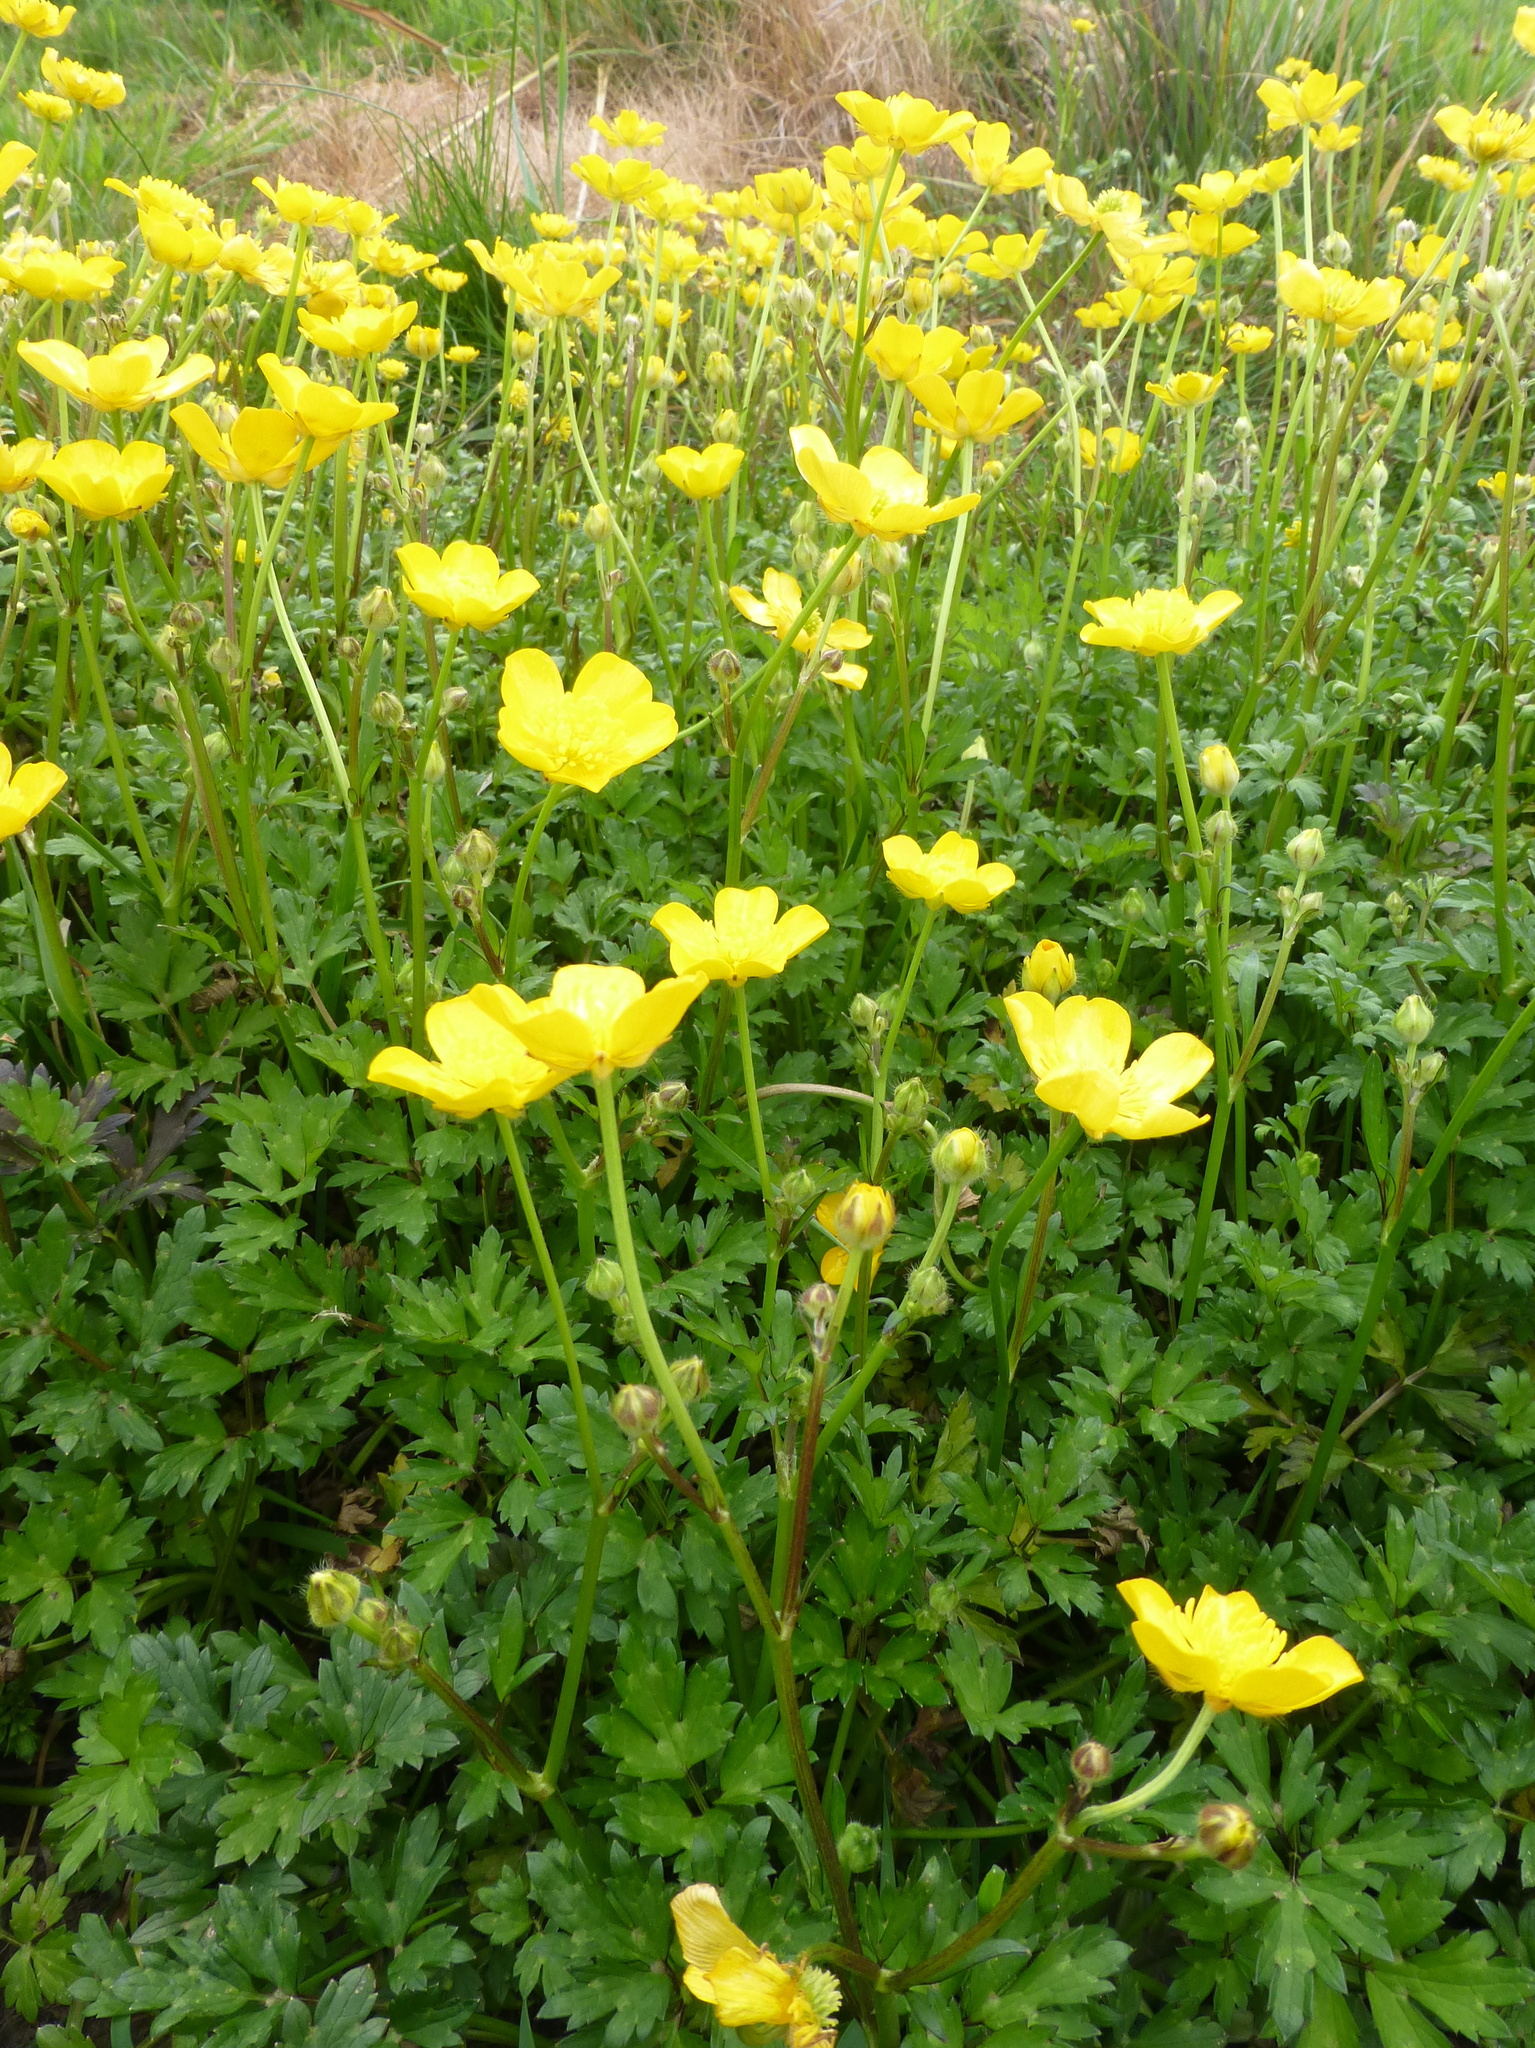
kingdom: Plantae
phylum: Tracheophyta
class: Magnoliopsida
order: Ranunculales
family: Ranunculaceae
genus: Ranunculus
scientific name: Ranunculus repens
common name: Creeping buttercup
